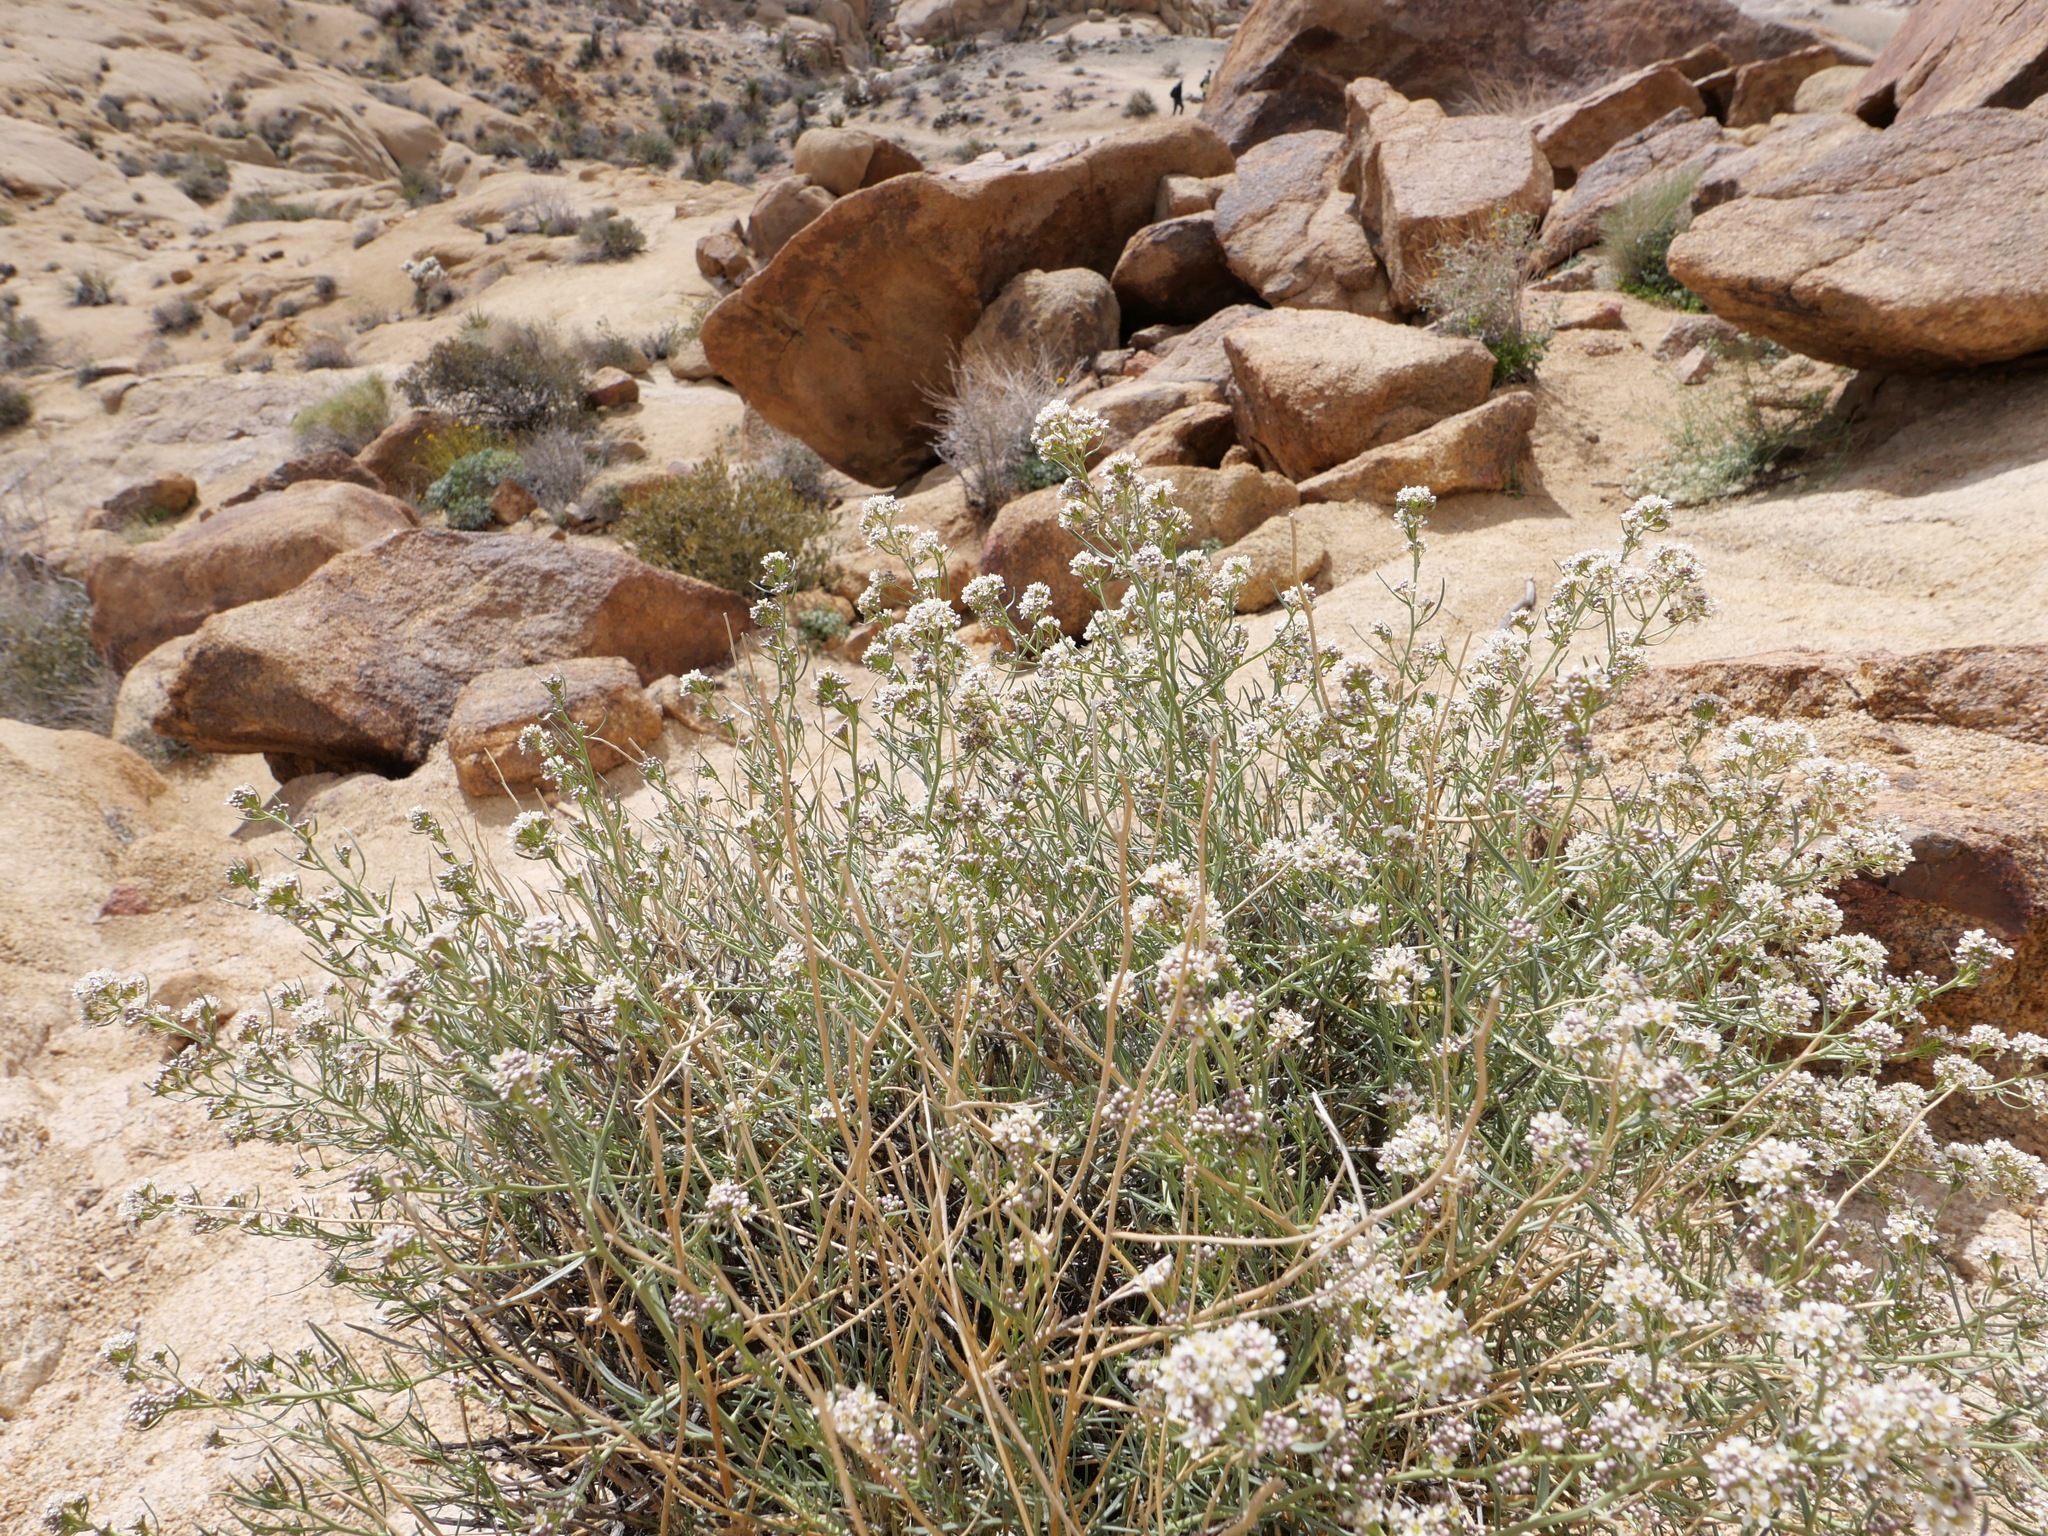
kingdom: Plantae
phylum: Tracheophyta
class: Magnoliopsida
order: Brassicales
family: Brassicaceae
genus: Lepidium
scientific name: Lepidium fremontii
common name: Fremont's pepperwort
